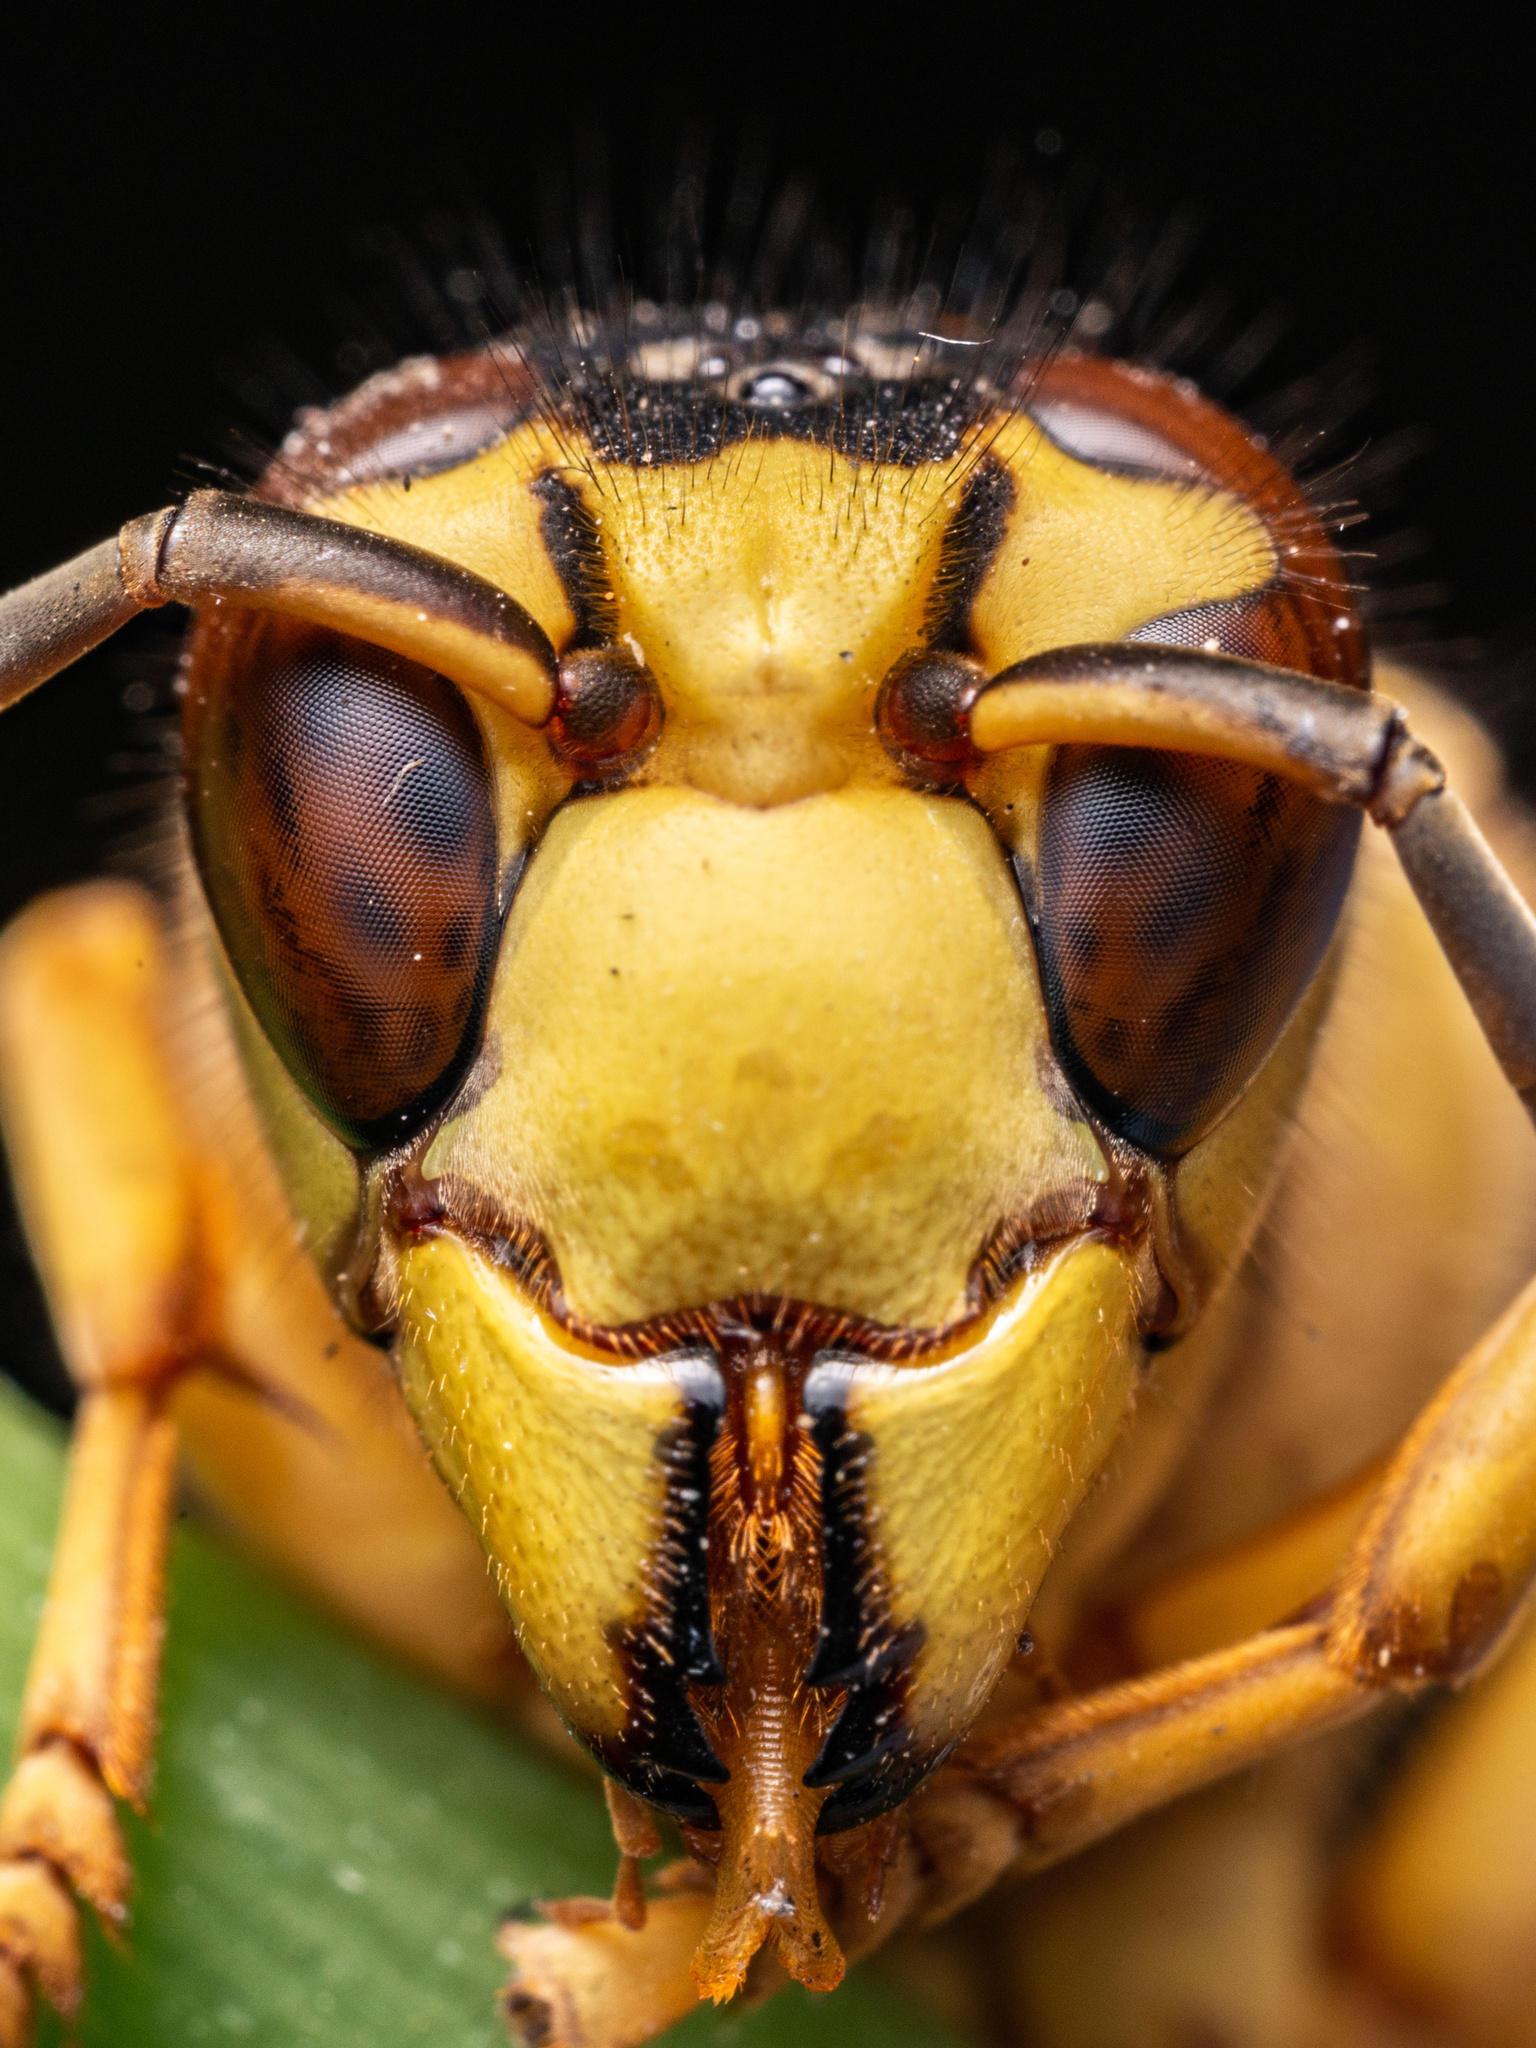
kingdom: Animalia
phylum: Arthropoda
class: Insecta
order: Hymenoptera
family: Vespidae
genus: Vespa
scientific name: Vespa bicolor
